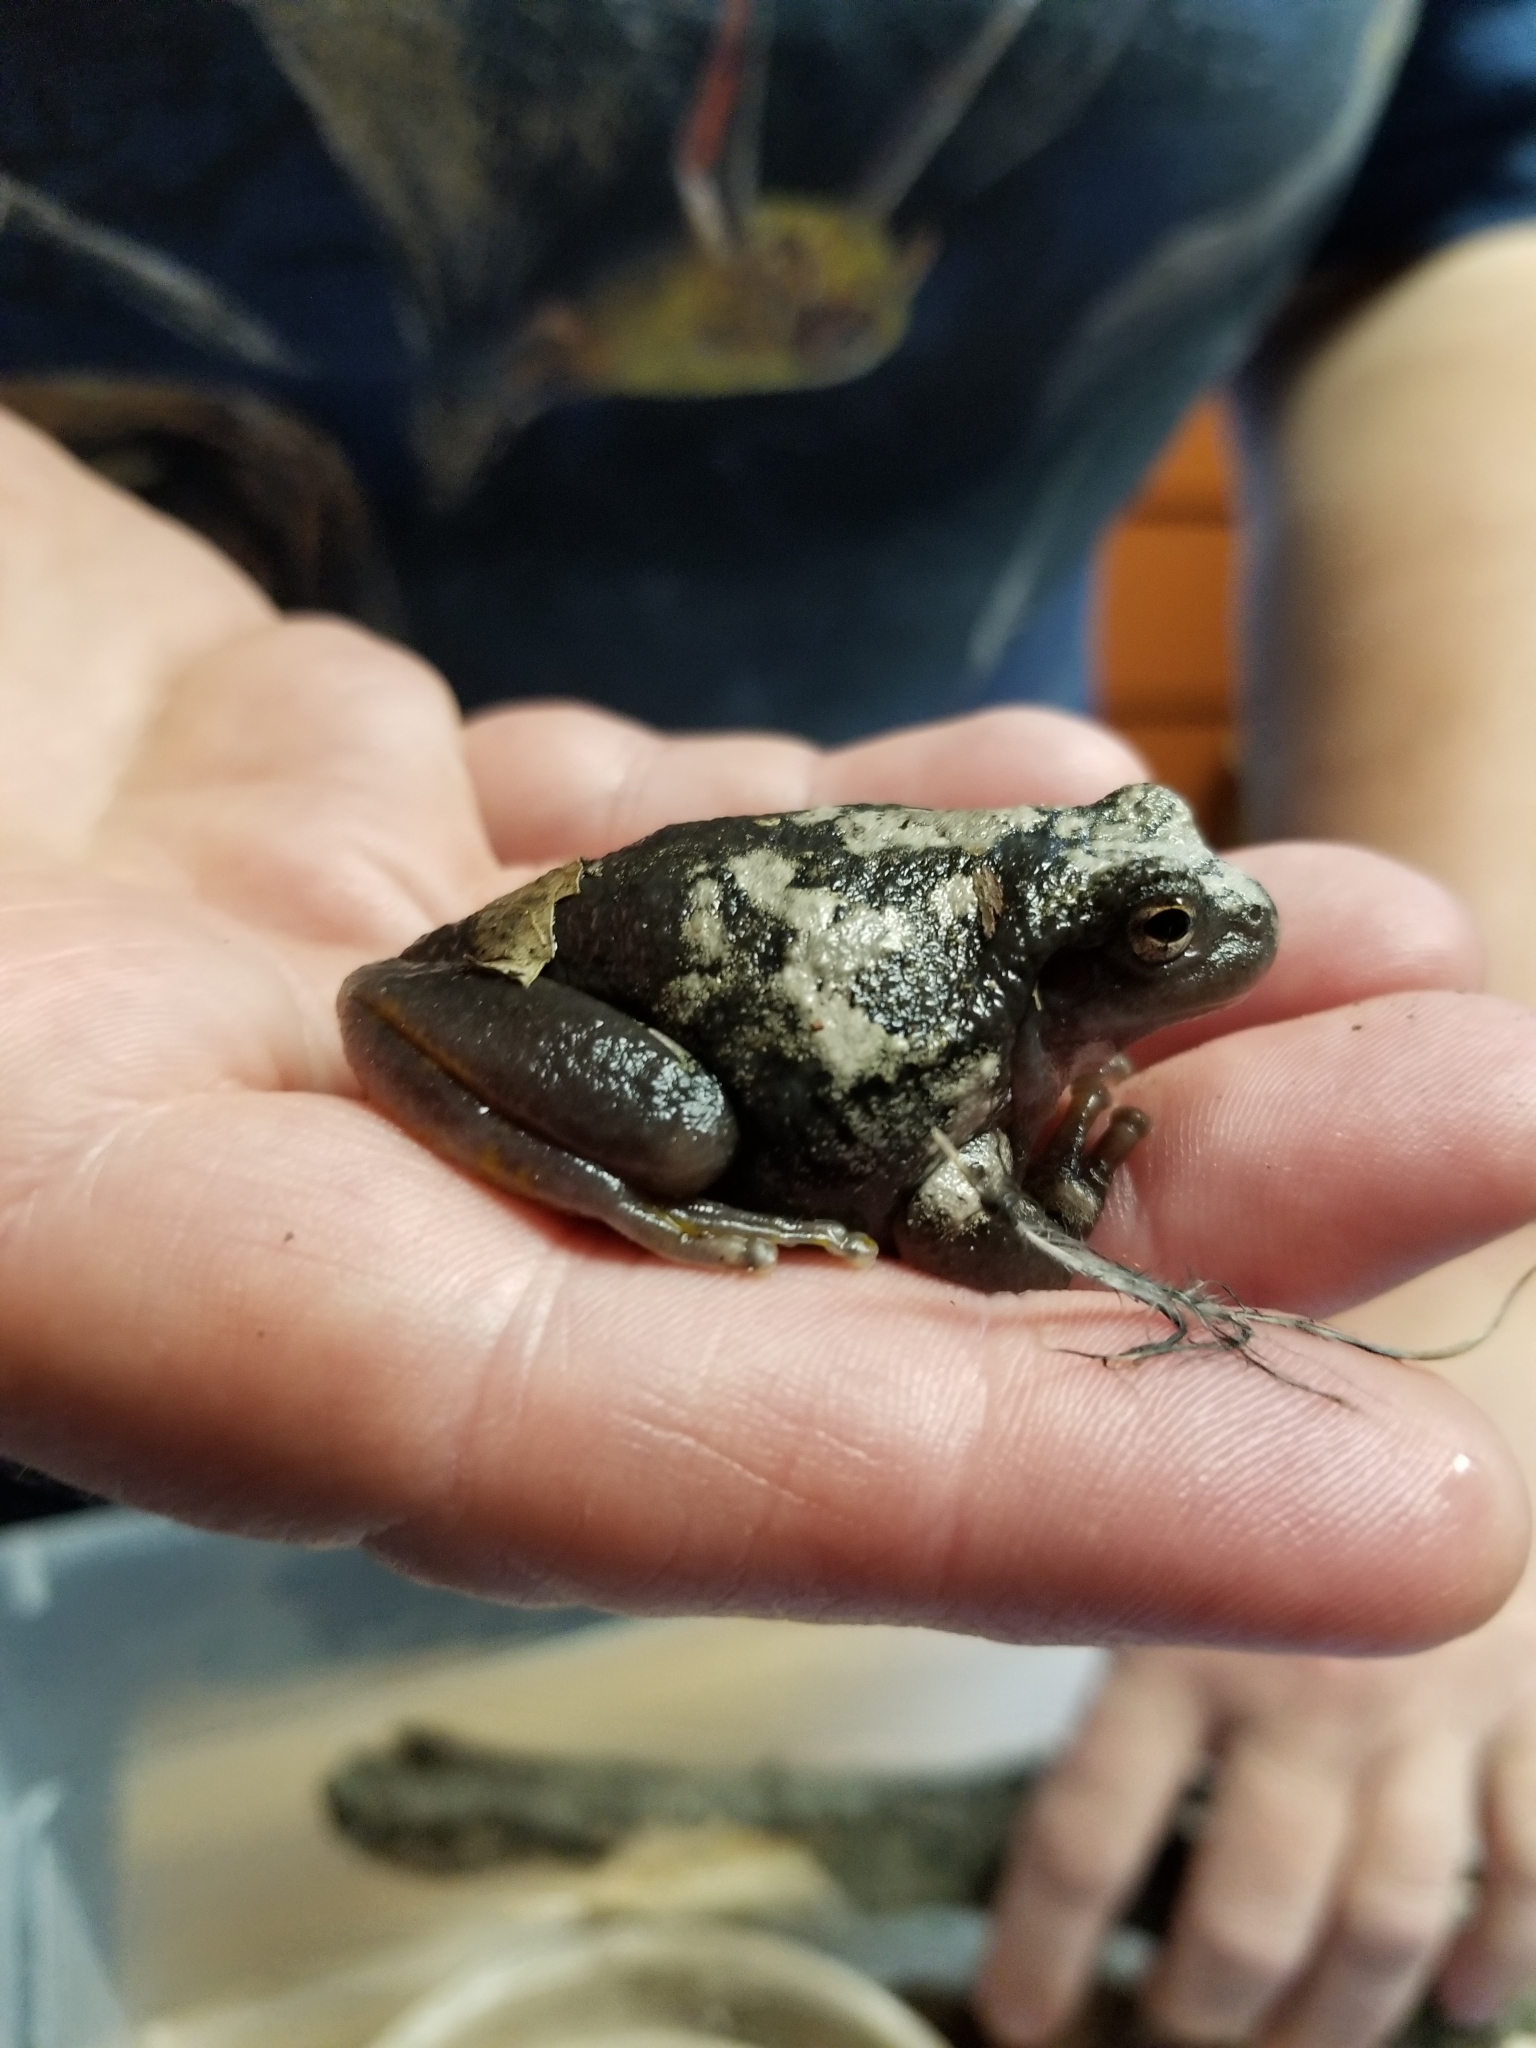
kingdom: Animalia
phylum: Chordata
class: Amphibia
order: Anura
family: Hylidae
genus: Dryophytes
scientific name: Dryophytes versicolor
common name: Gray treefrog
